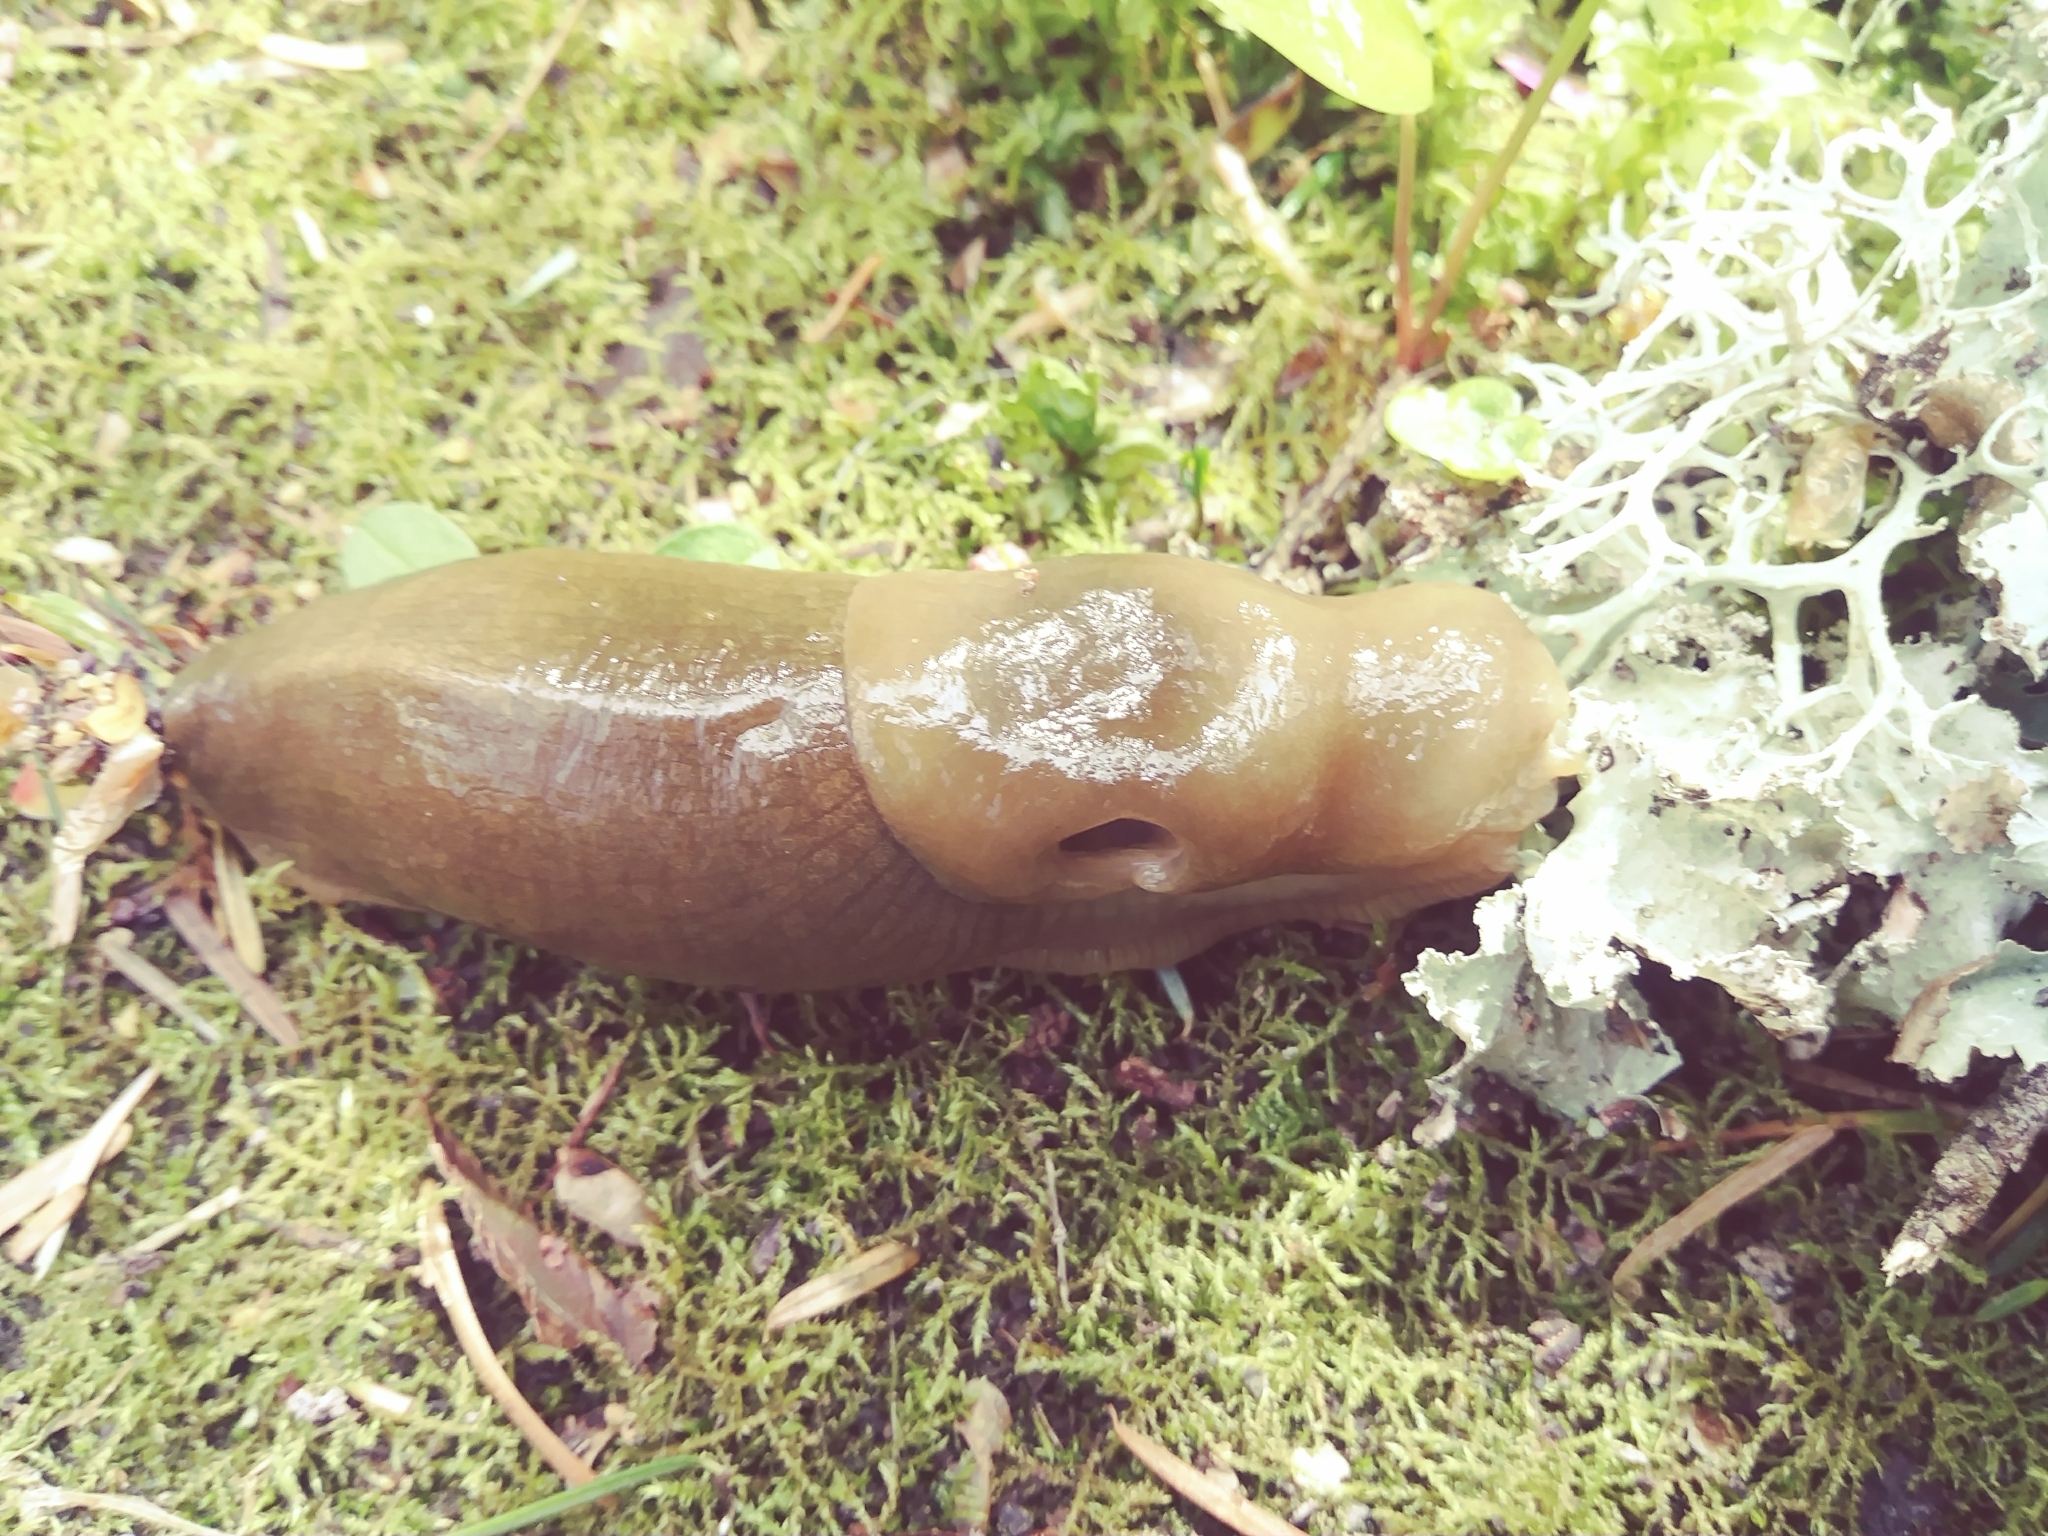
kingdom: Animalia
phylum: Mollusca
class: Gastropoda
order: Stylommatophora
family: Ariolimacidae
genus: Ariolimax
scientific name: Ariolimax columbianus
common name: Pacific banana slug
